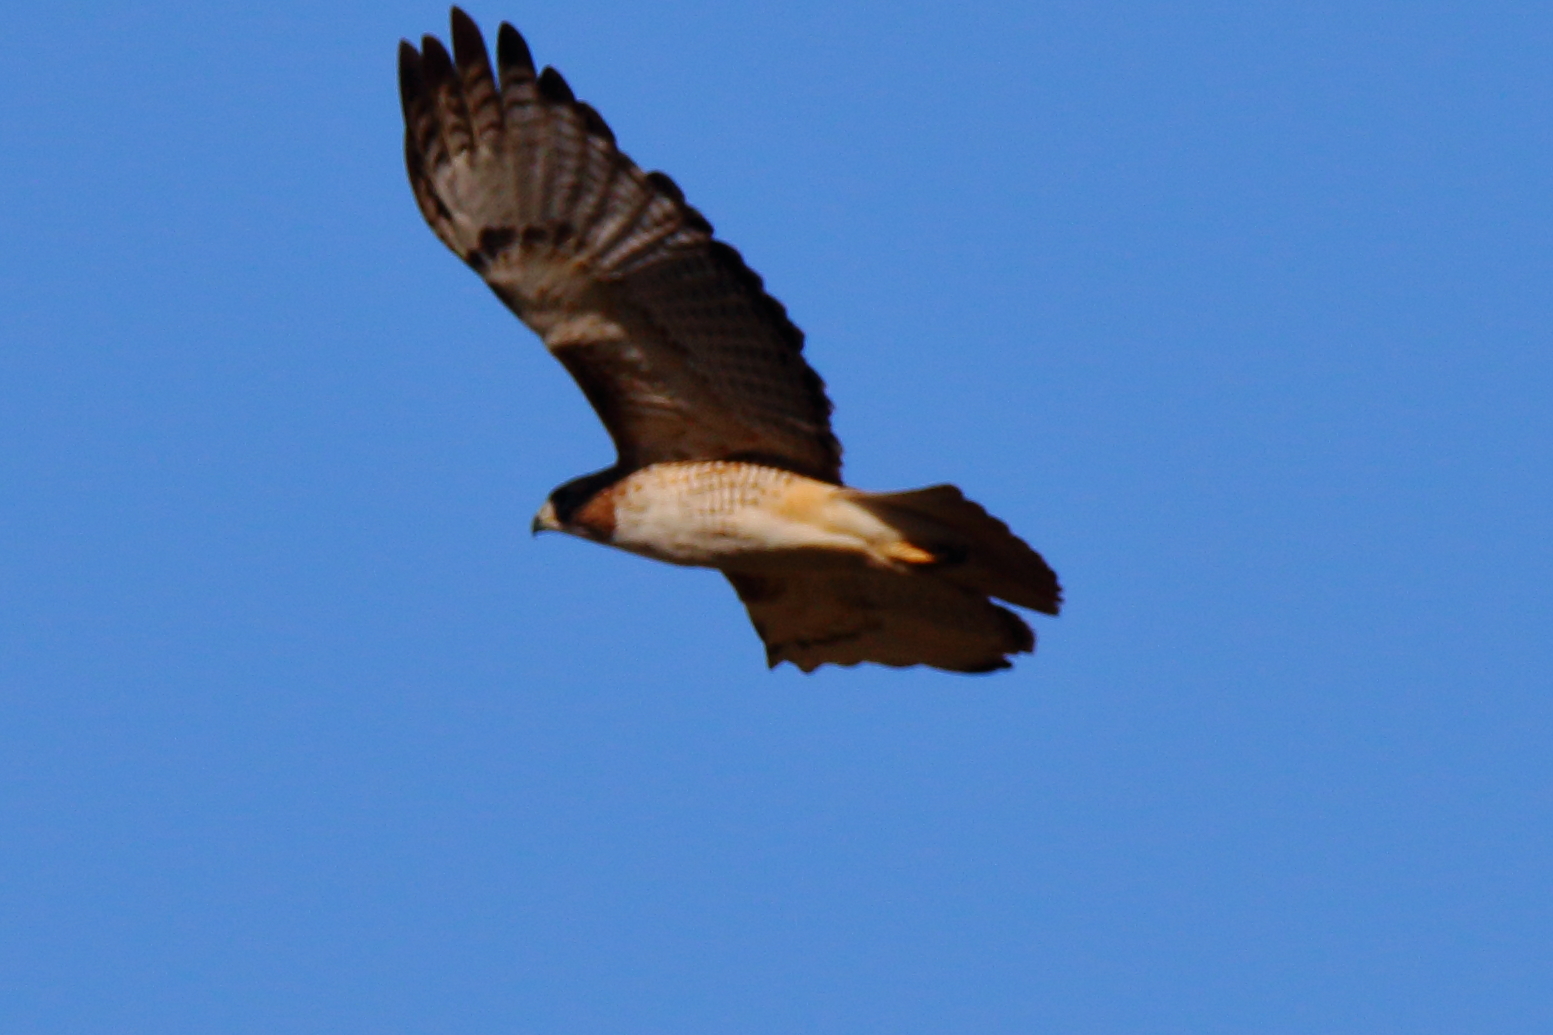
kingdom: Animalia
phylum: Chordata
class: Aves
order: Accipitriformes
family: Accipitridae
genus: Buteo
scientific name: Buteo jamaicensis
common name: Red-tailed hawk
